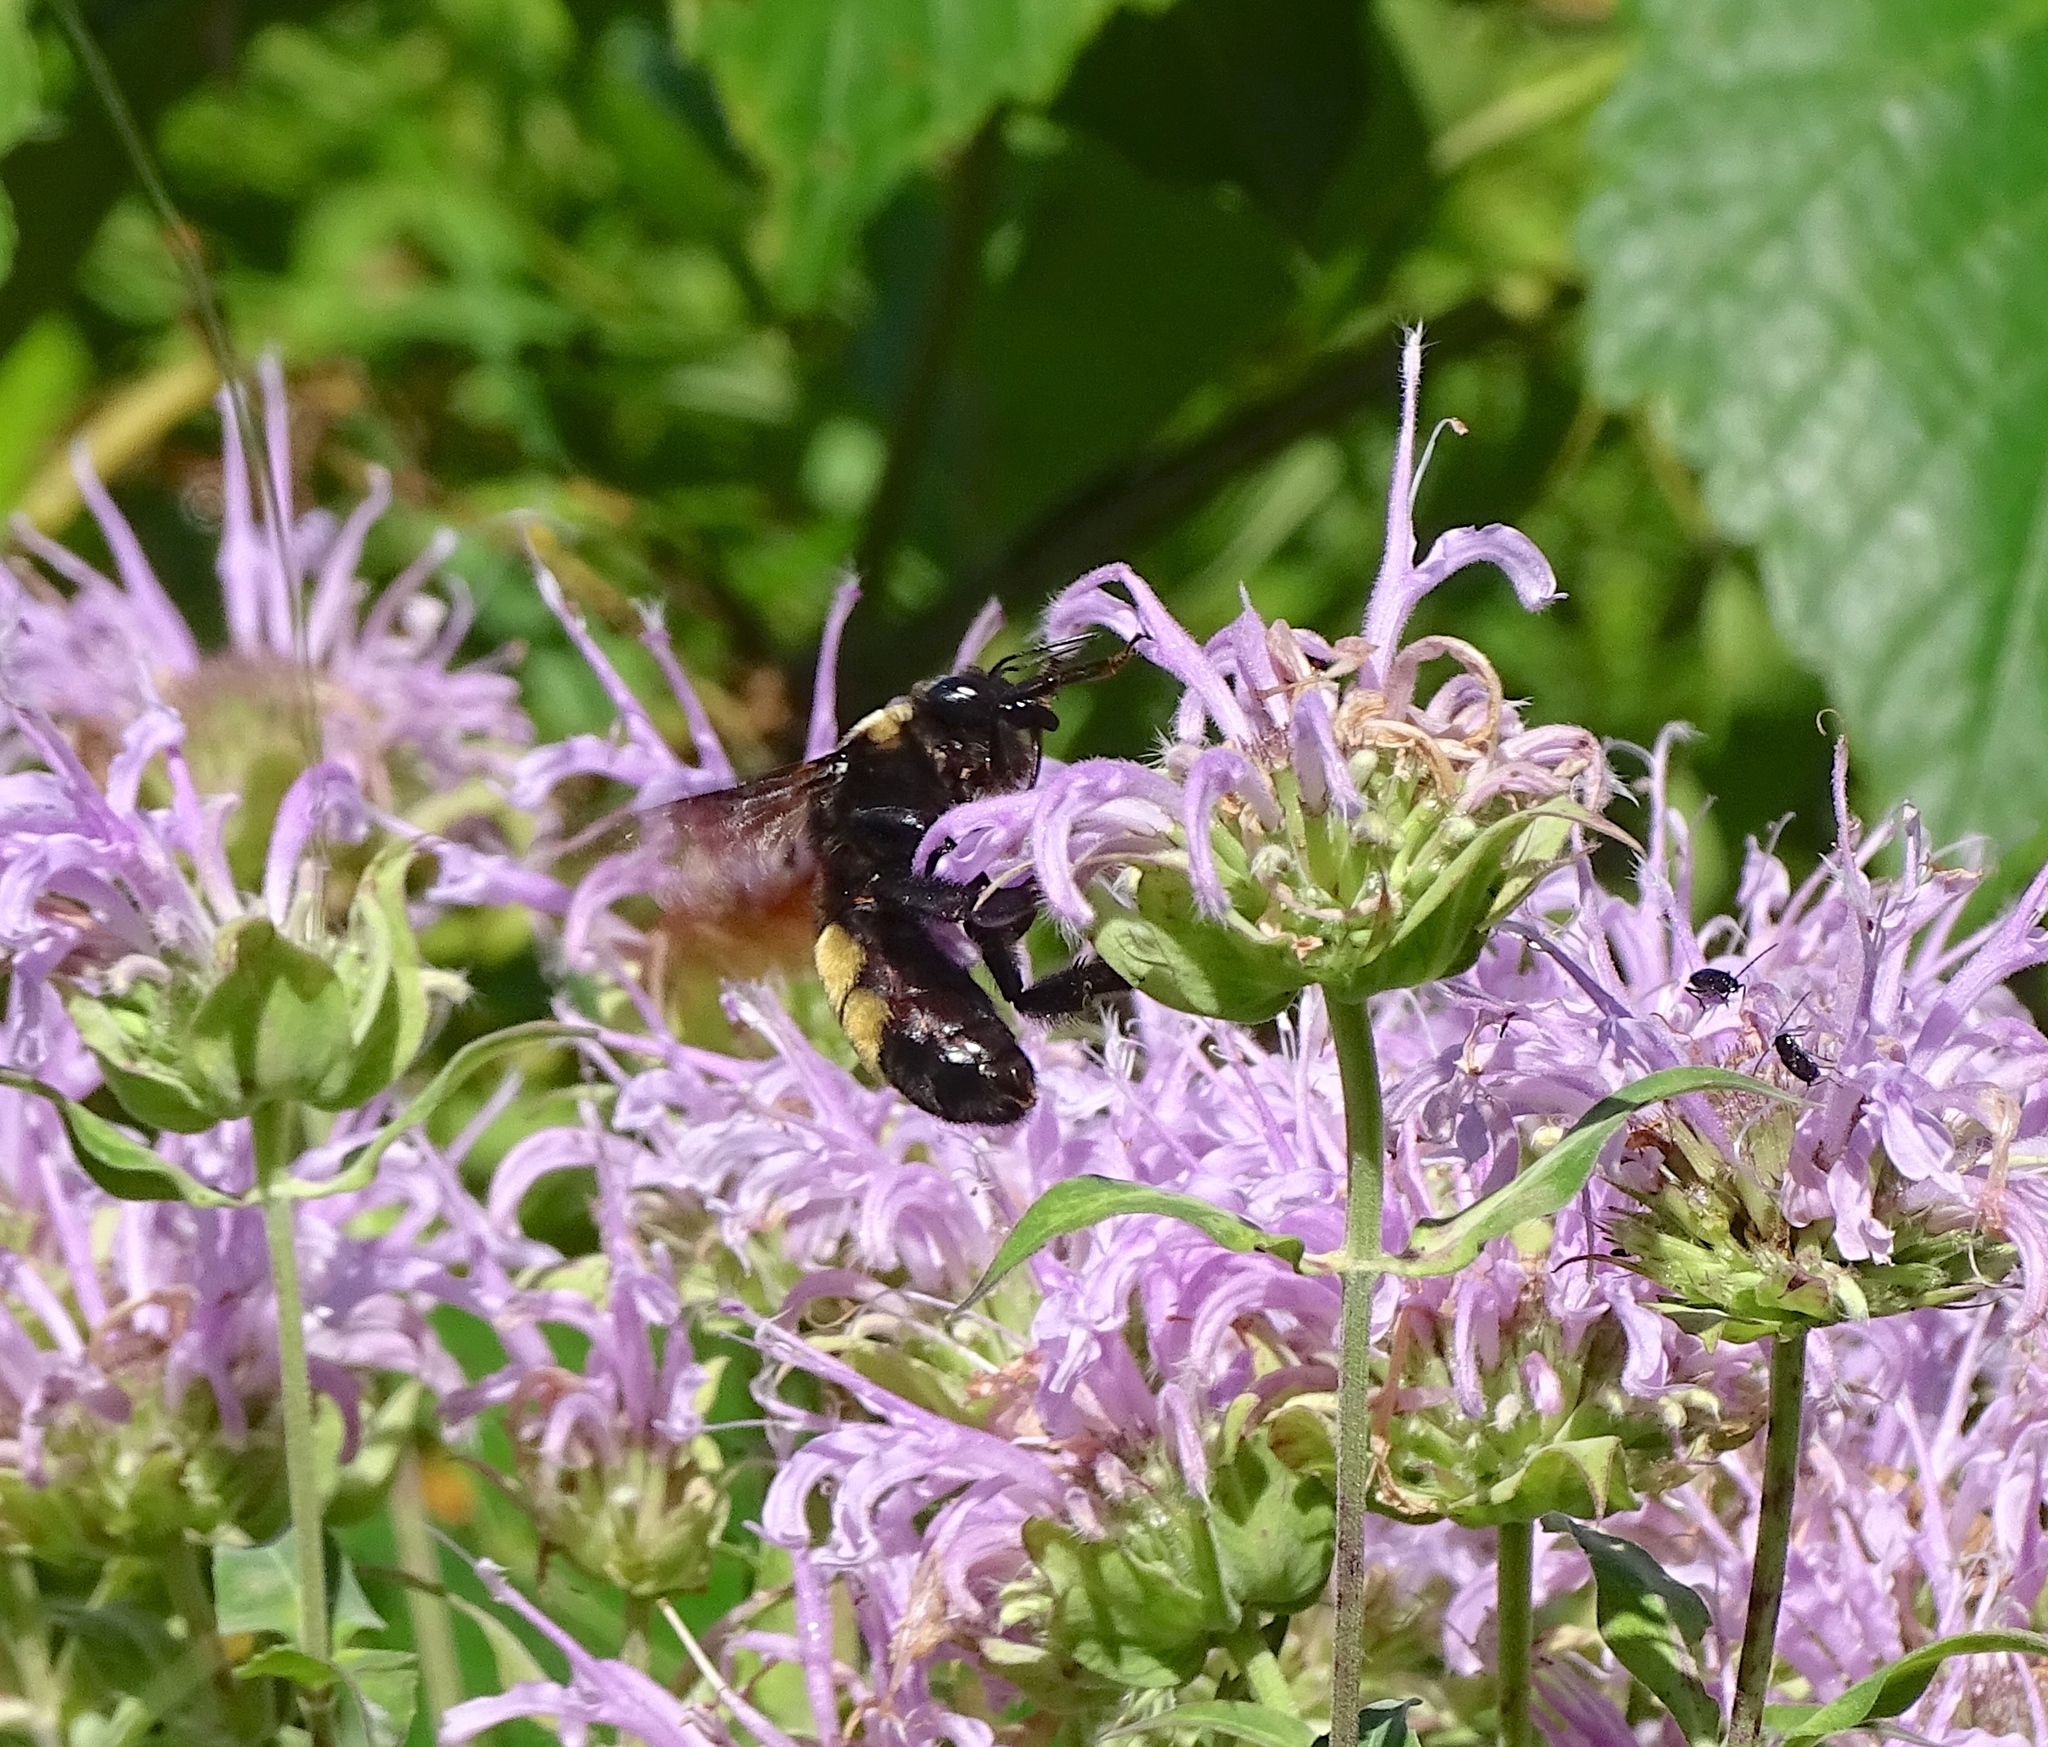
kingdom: Animalia
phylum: Arthropoda
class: Insecta
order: Hymenoptera
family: Apidae
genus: Bombus
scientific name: Bombus auricomus
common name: Black and gold bumble bee
